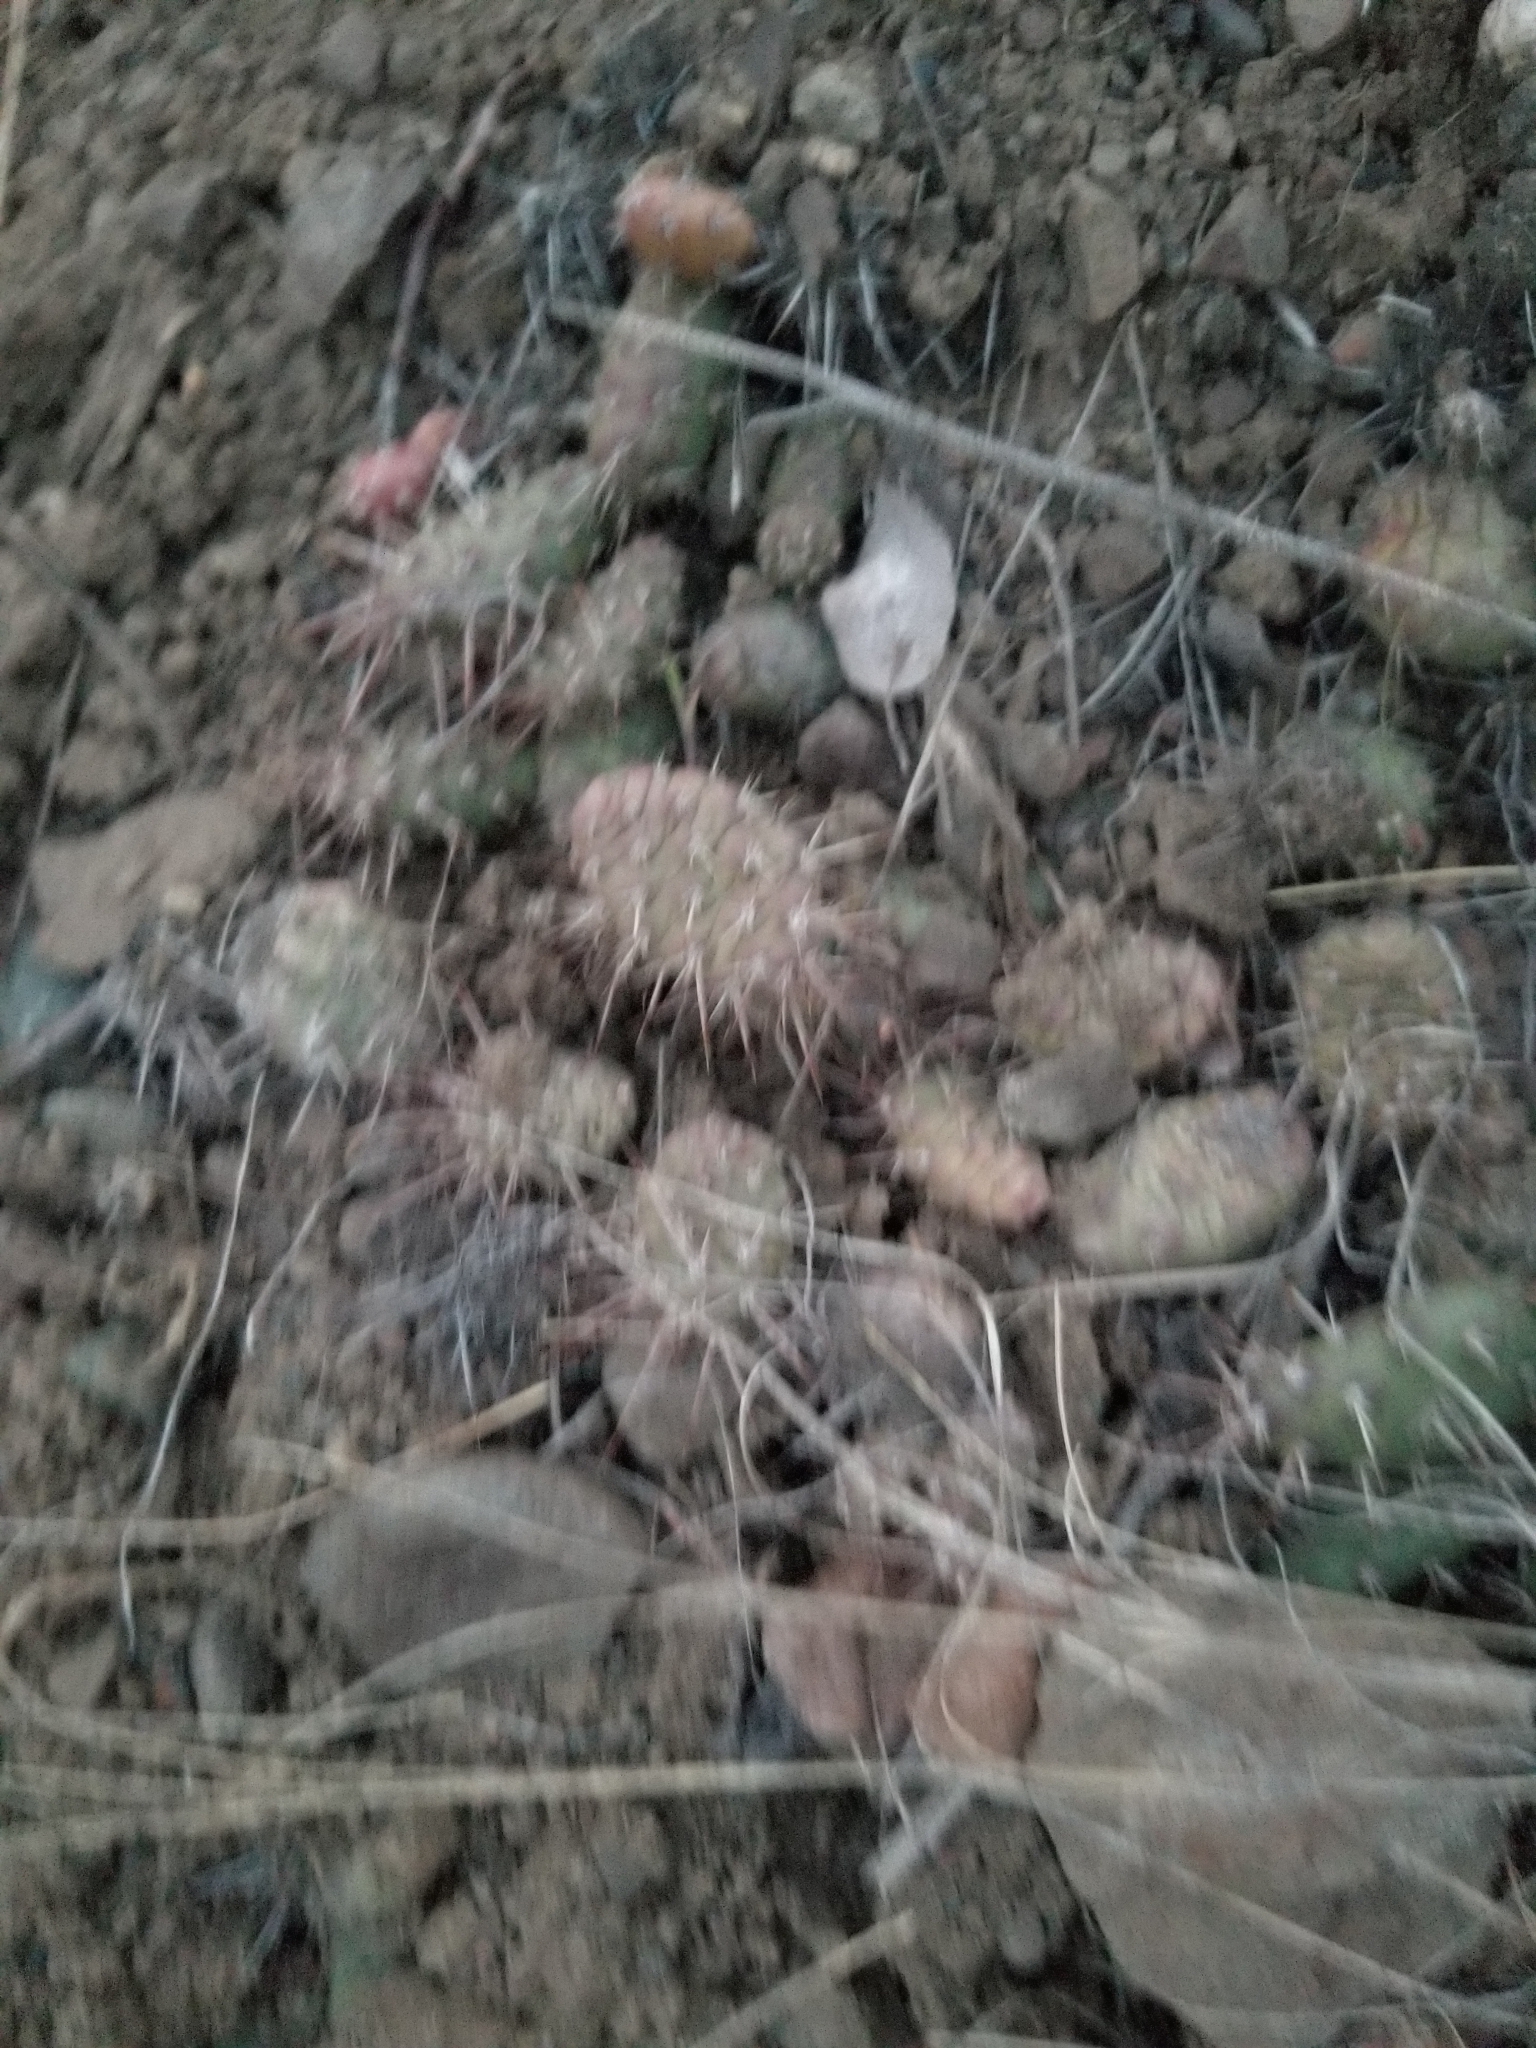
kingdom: Plantae
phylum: Tracheophyta
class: Magnoliopsida
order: Caryophyllales
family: Cactaceae
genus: Opuntia
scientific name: Opuntia fragilis
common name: Brittle cactus
